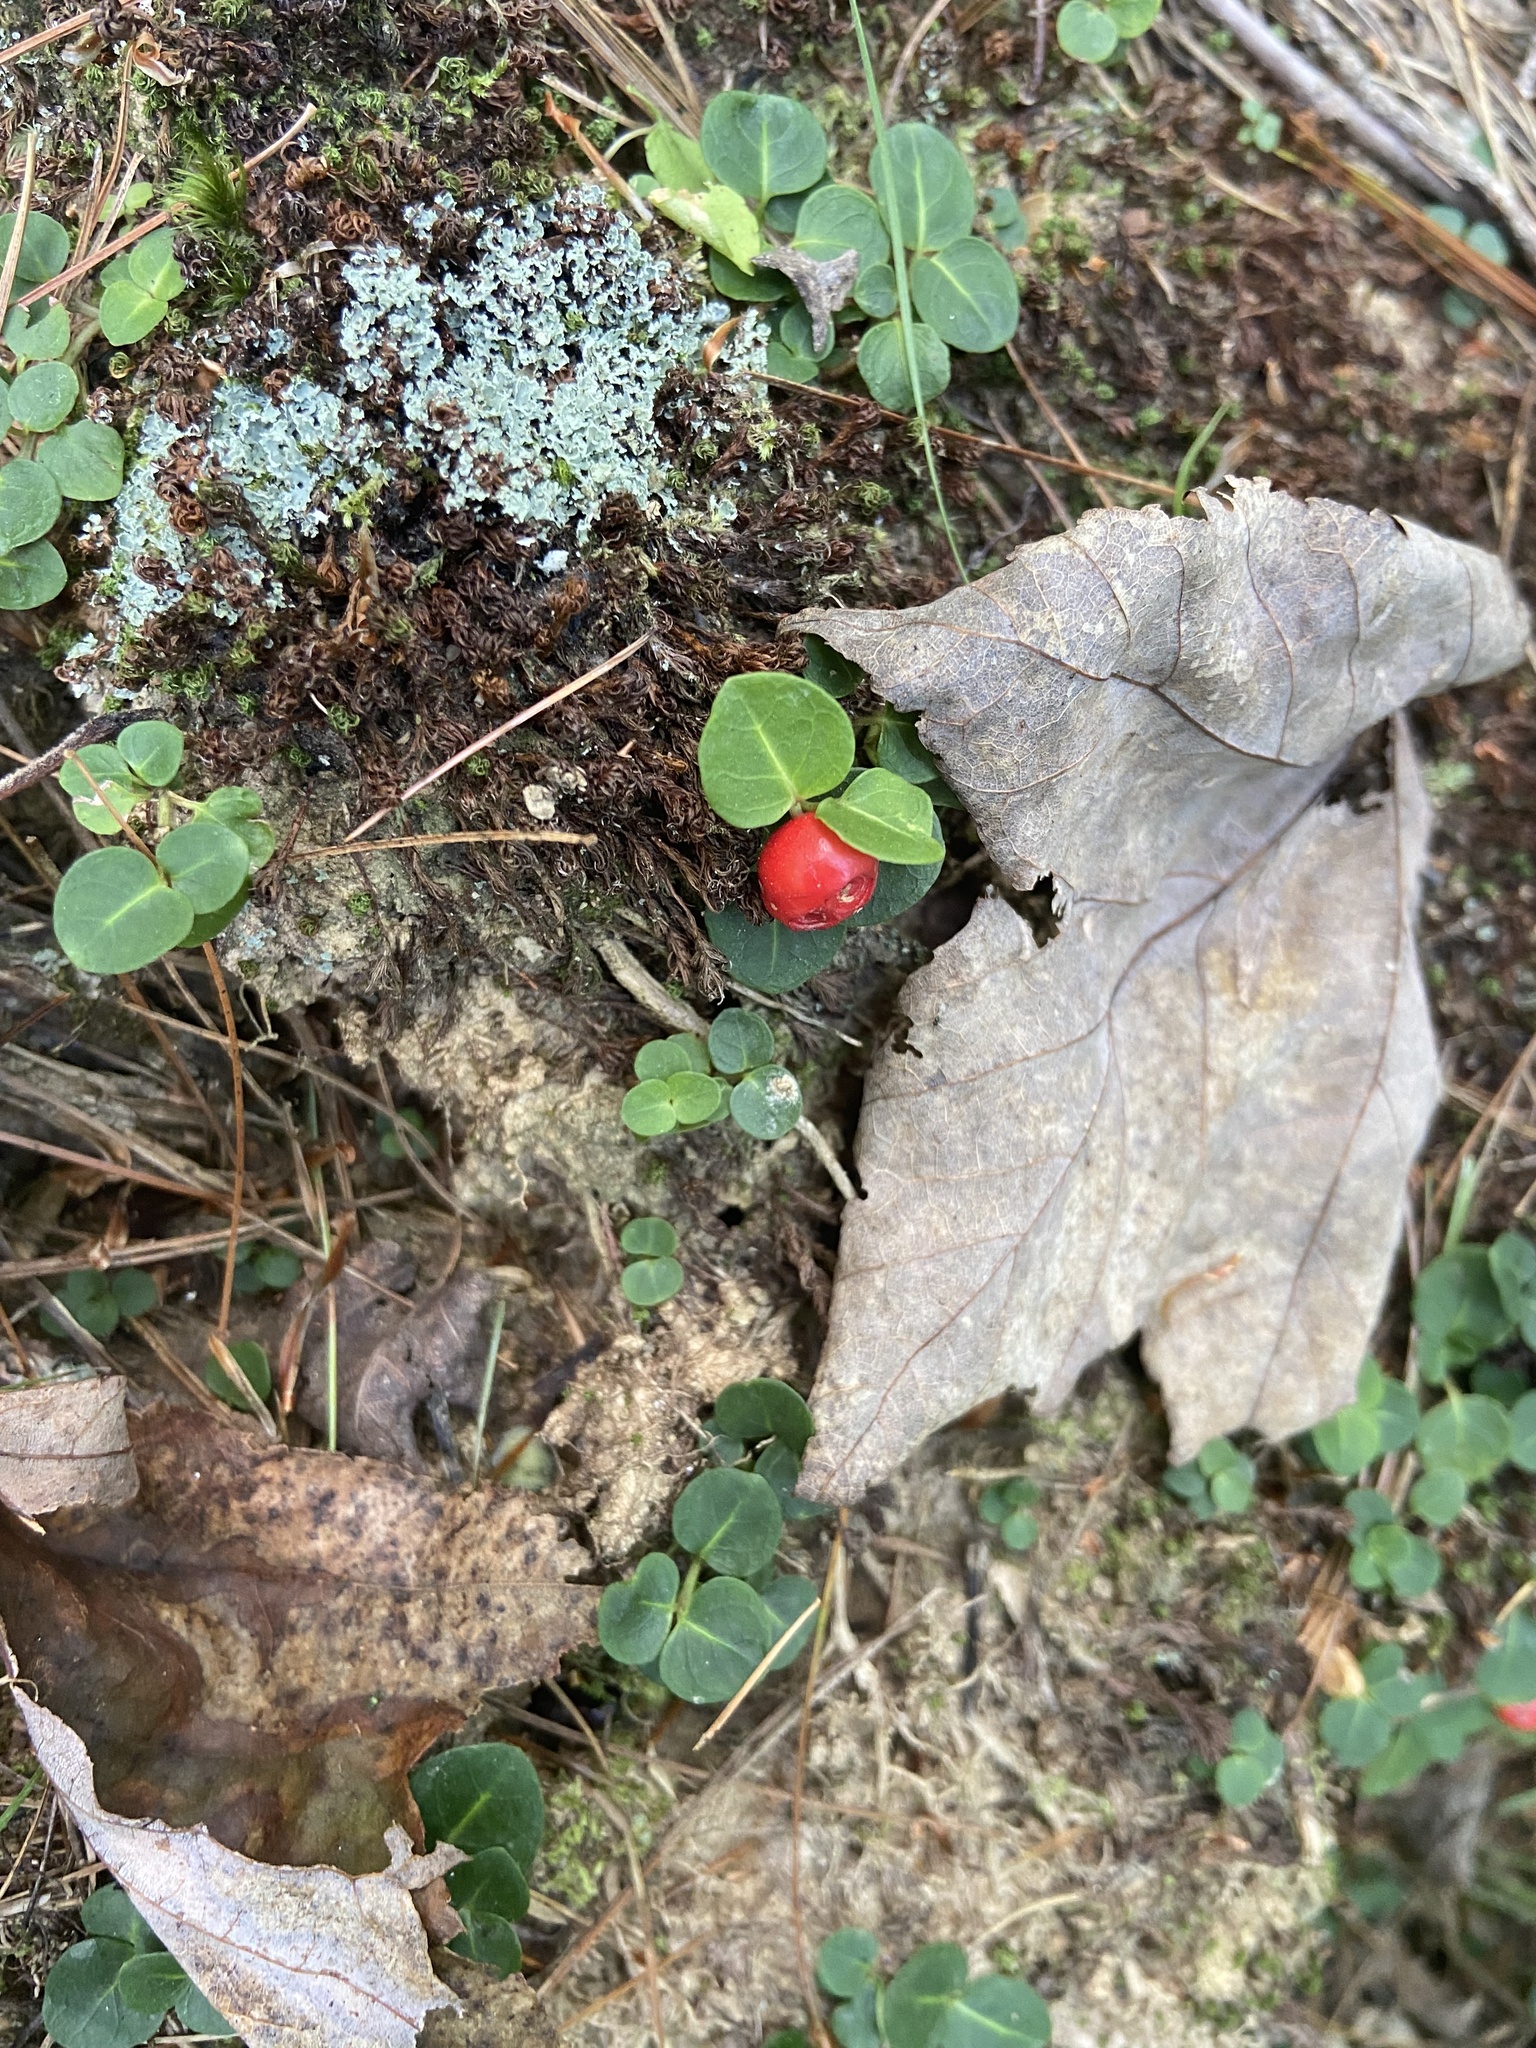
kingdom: Plantae
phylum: Tracheophyta
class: Magnoliopsida
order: Gentianales
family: Rubiaceae
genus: Mitchella
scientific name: Mitchella repens
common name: Partridge-berry
